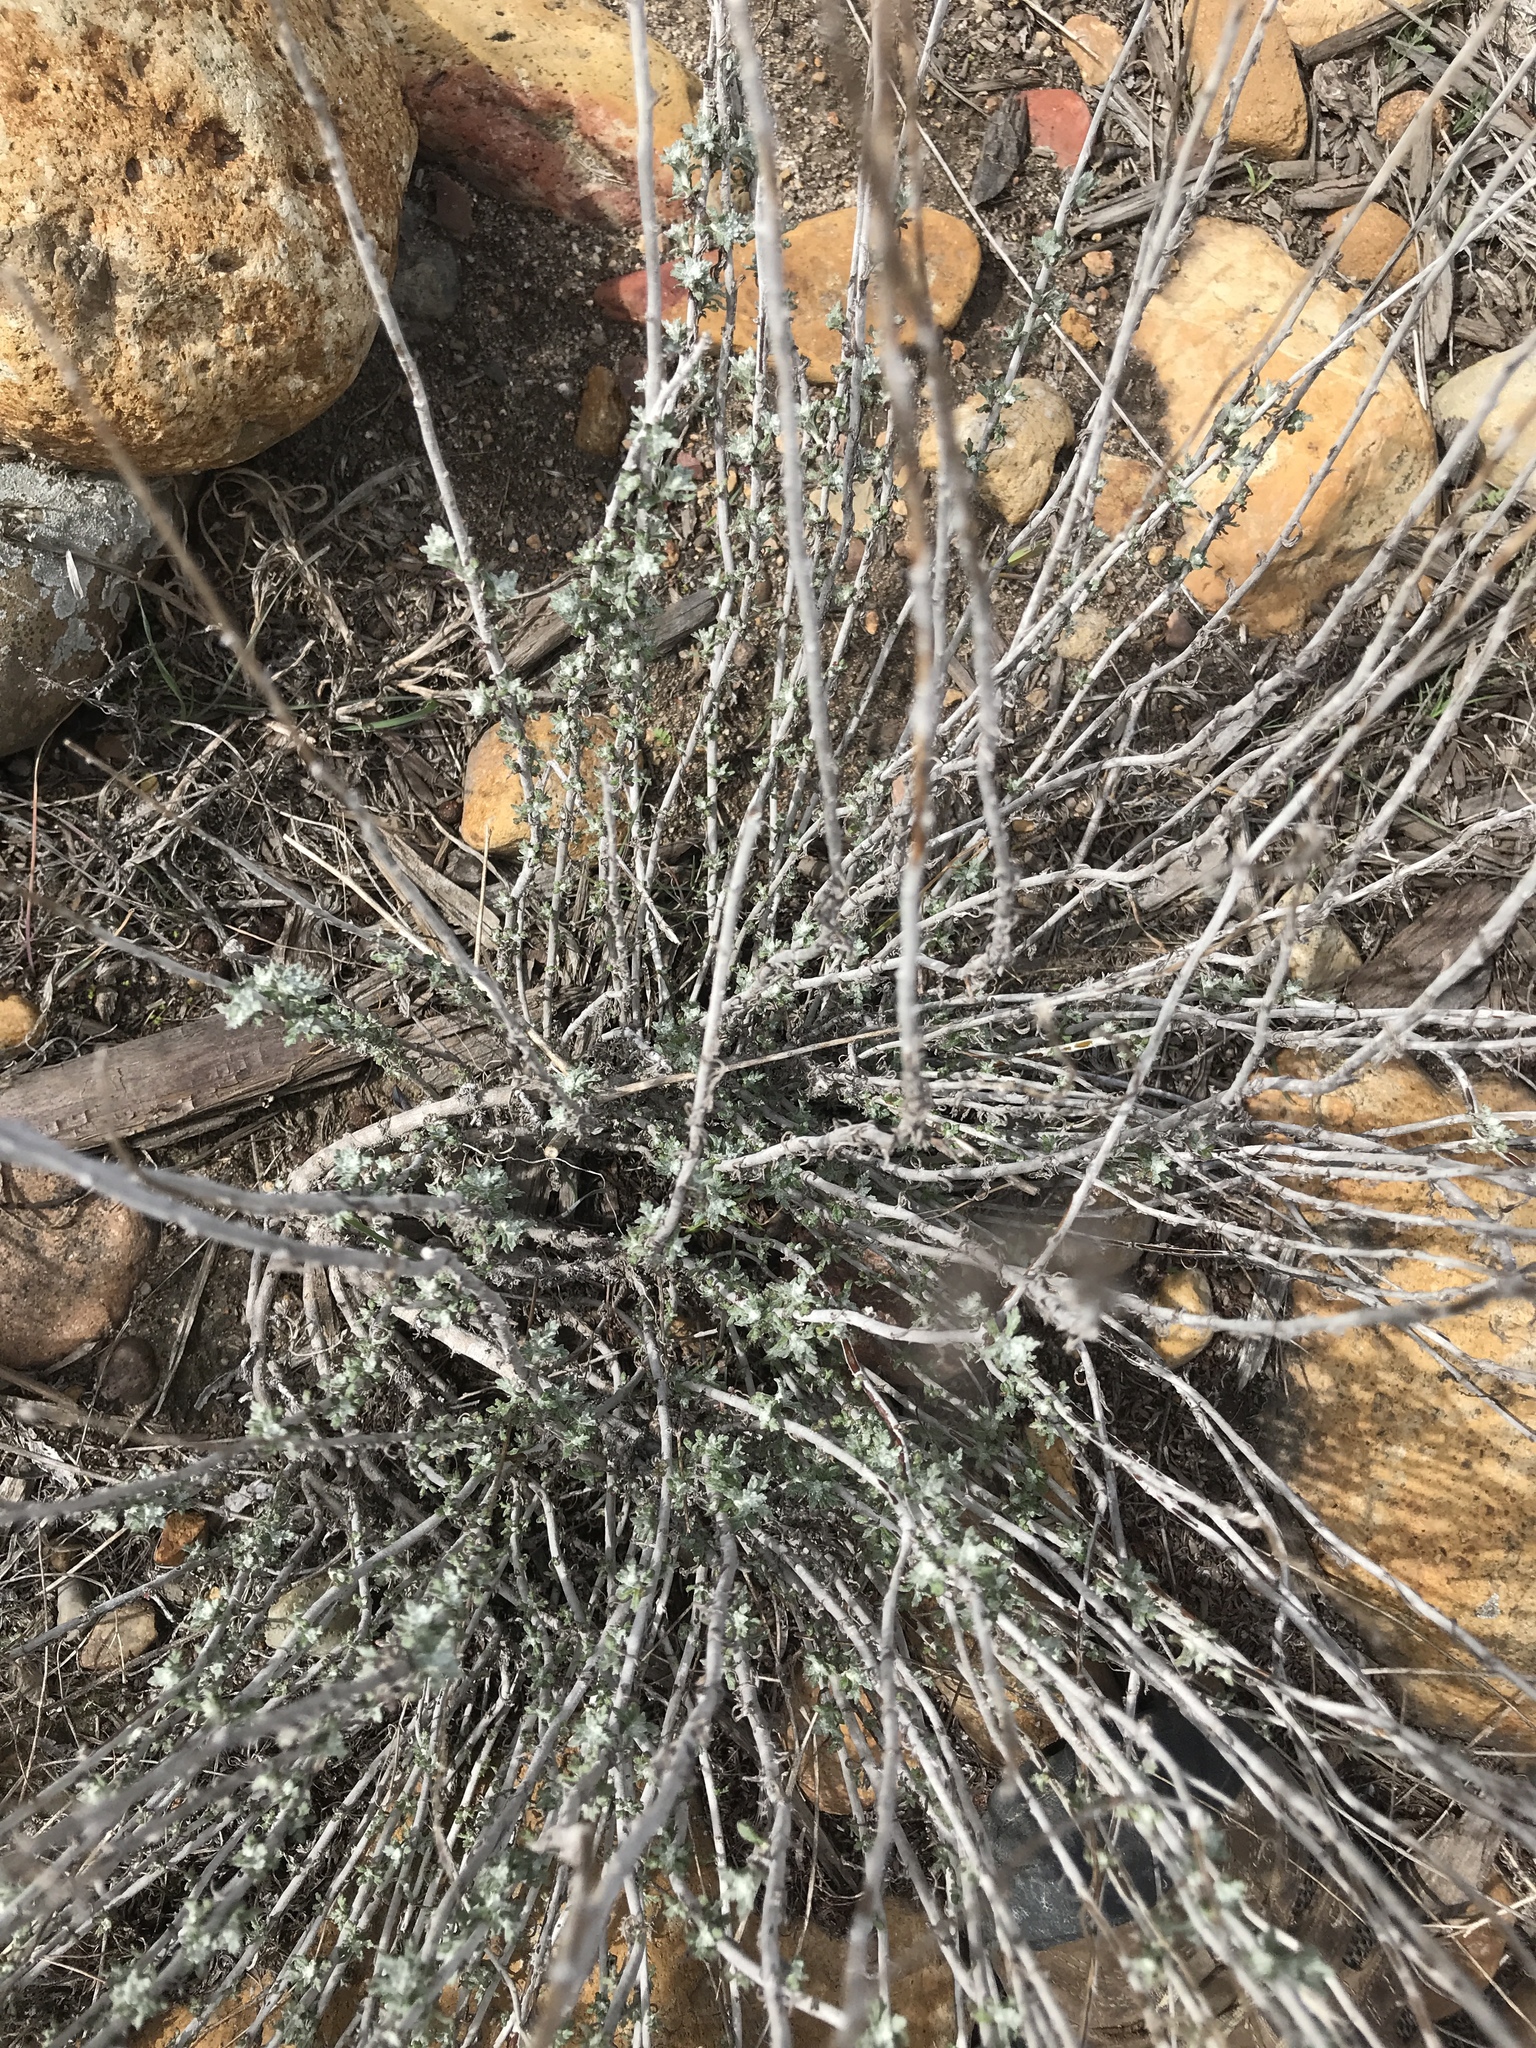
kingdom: Plantae
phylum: Tracheophyta
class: Magnoliopsida
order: Asterales
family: Asteraceae
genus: Eriophyllum
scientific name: Eriophyllum confertiflorum
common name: Golden-yarrow
